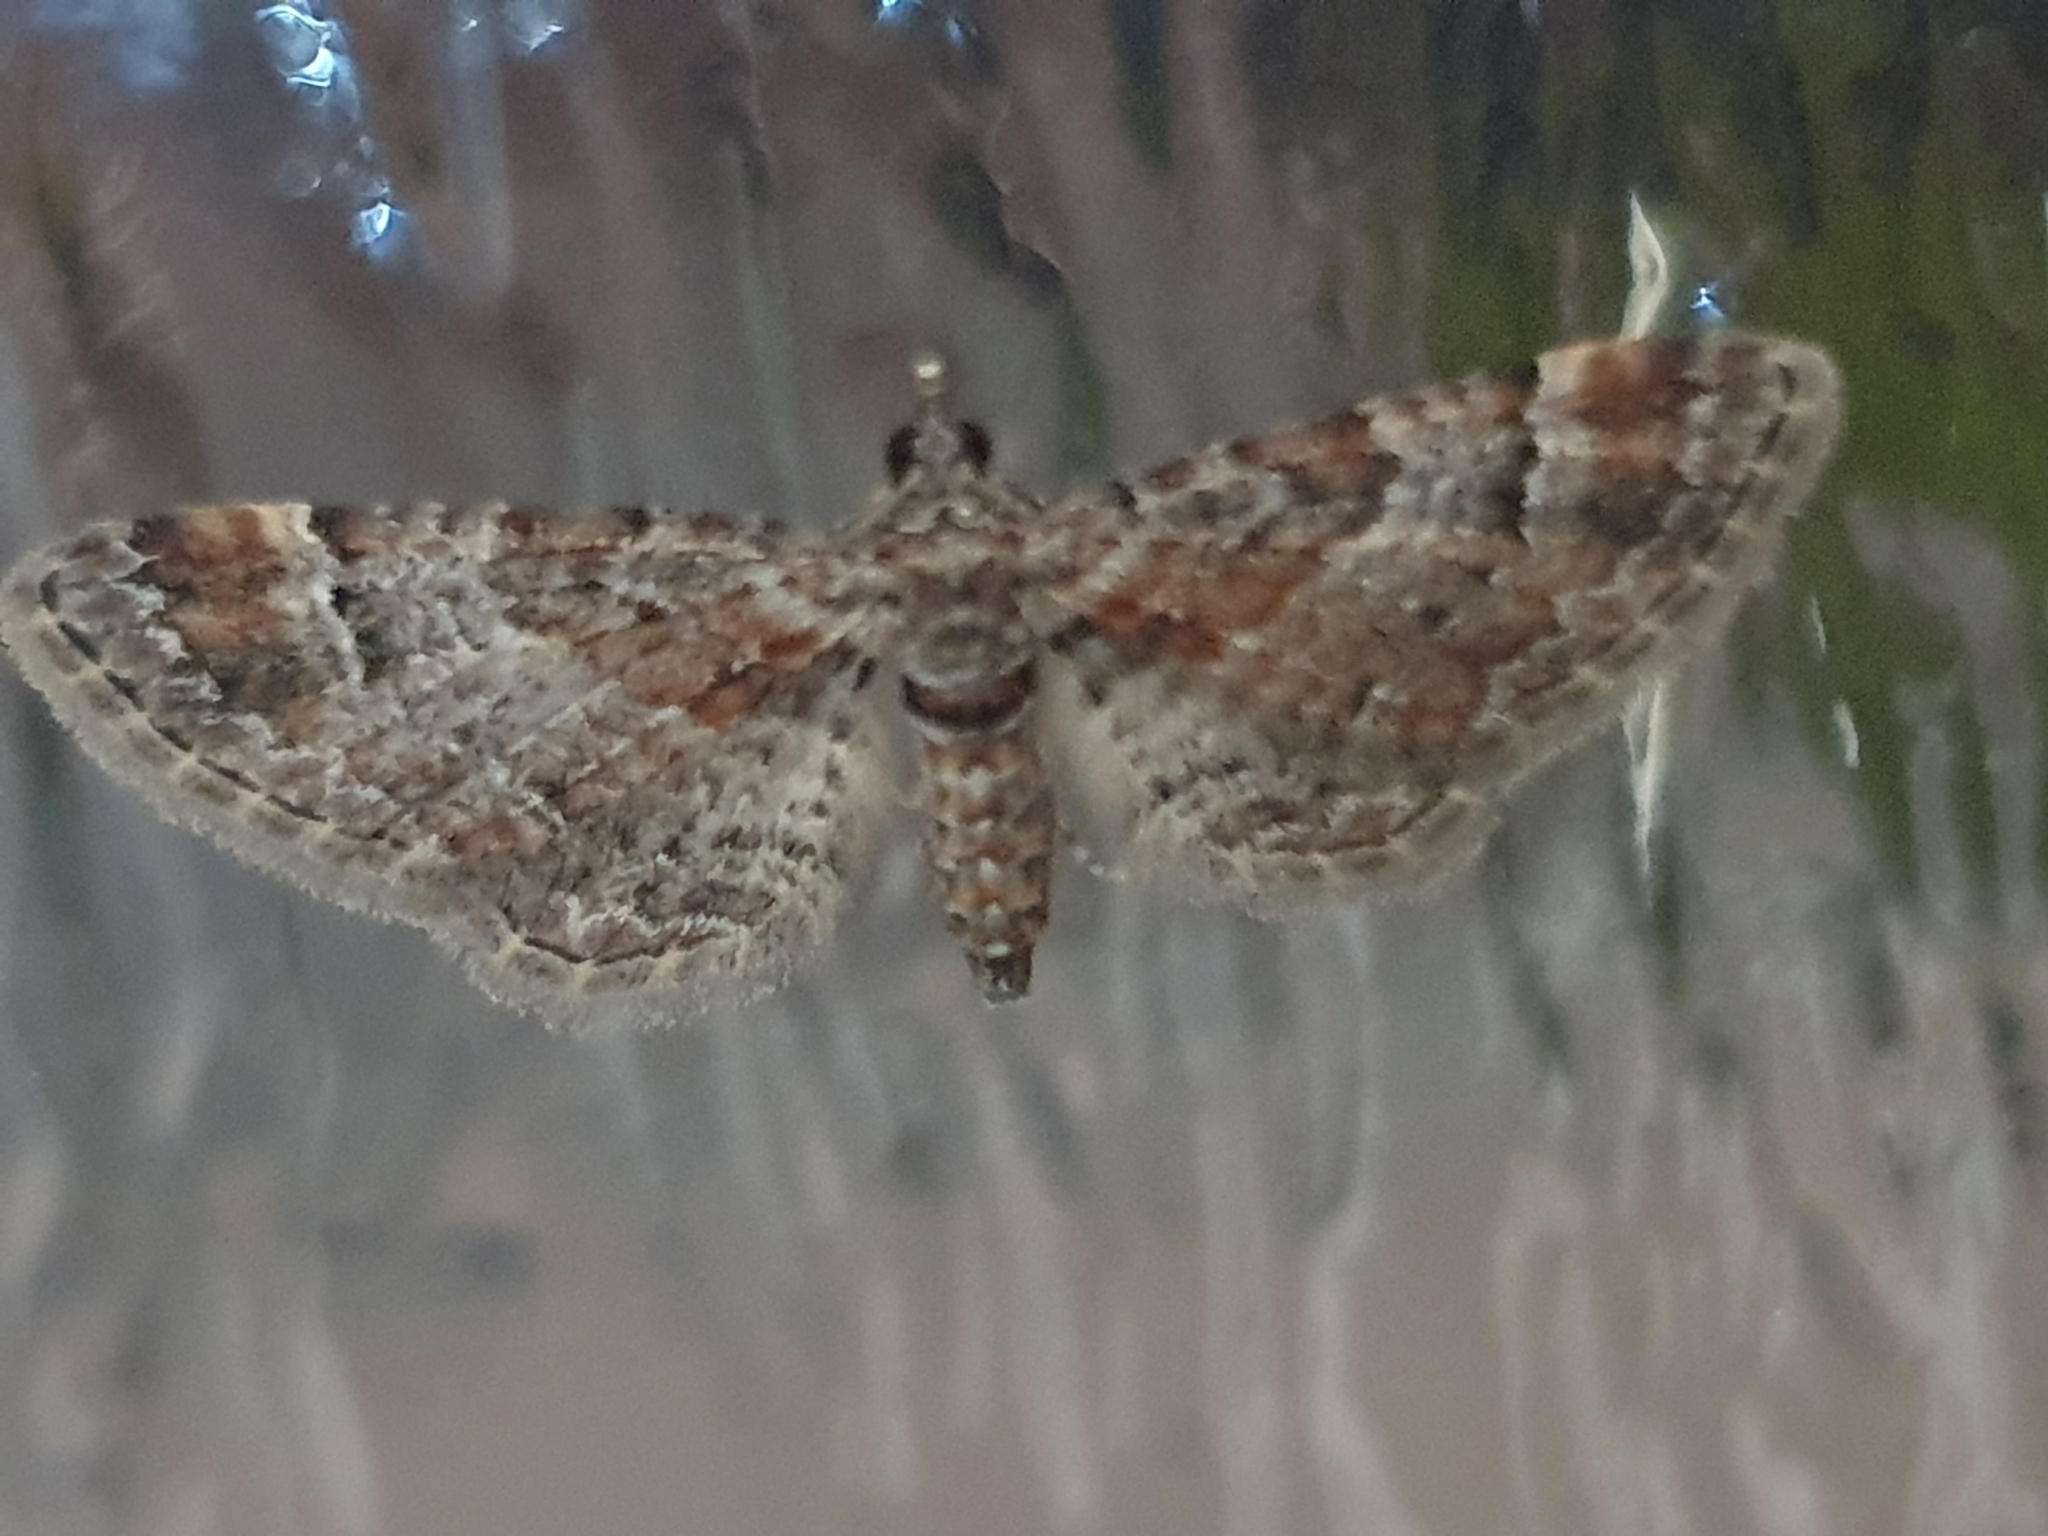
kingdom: Animalia
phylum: Arthropoda
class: Insecta
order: Lepidoptera
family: Geometridae
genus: Gymnoscelis
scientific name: Gymnoscelis rufifasciata
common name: Double-striped pug
